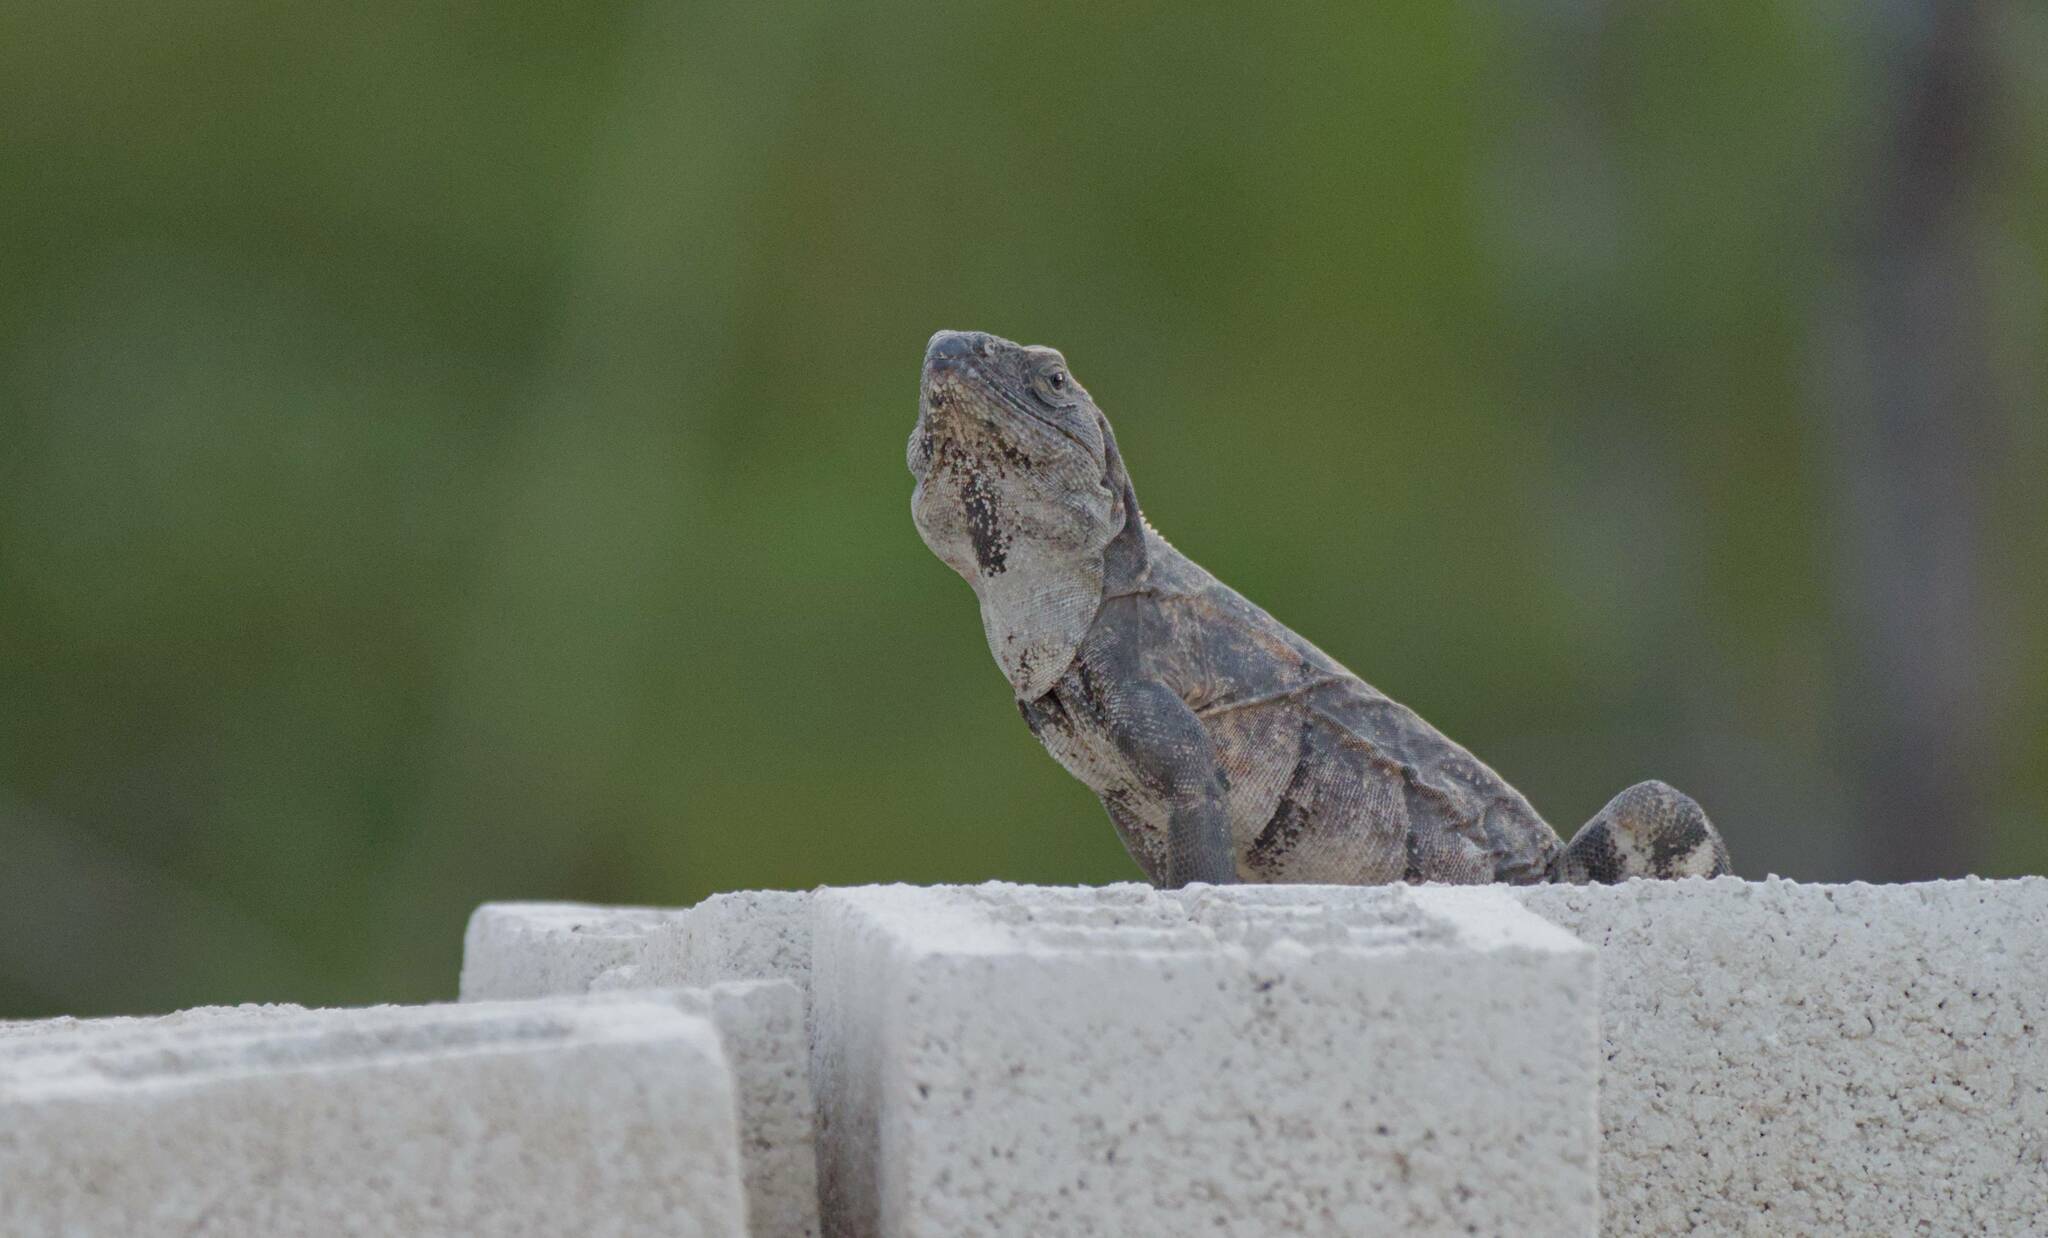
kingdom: Animalia
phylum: Chordata
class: Squamata
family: Iguanidae
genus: Ctenosaura
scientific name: Ctenosaura similis
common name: Black spiny-tailed iguana
